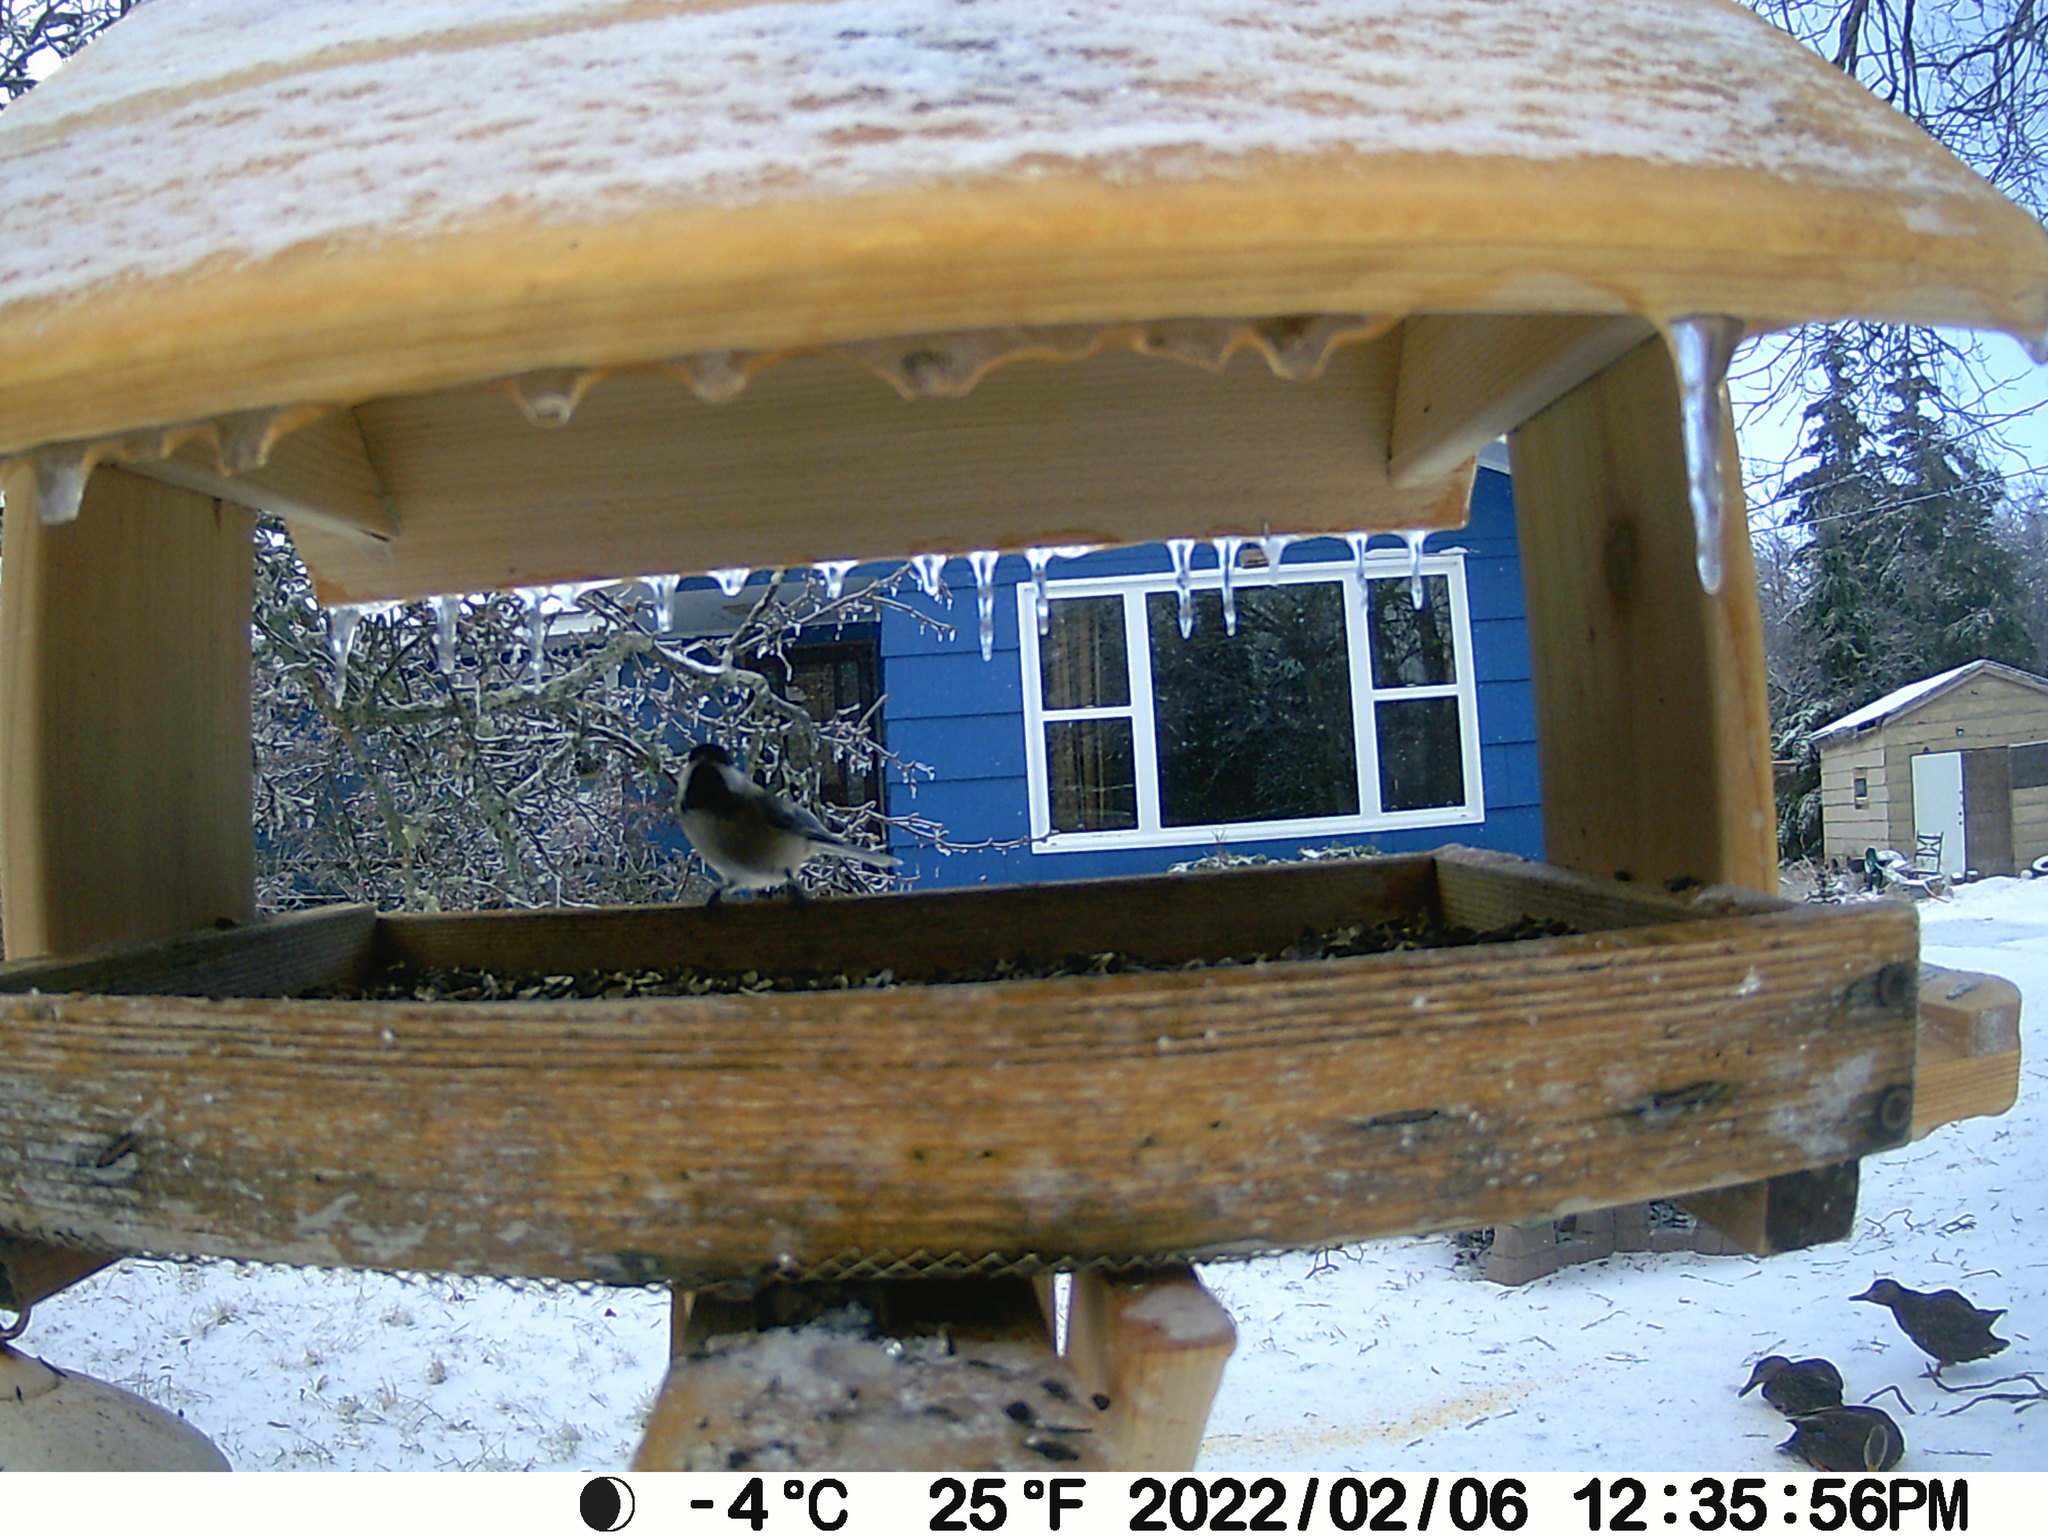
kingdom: Animalia
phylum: Chordata
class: Aves
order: Anseriformes
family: Anatidae
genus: Anas
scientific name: Anas rubripes
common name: American black duck
